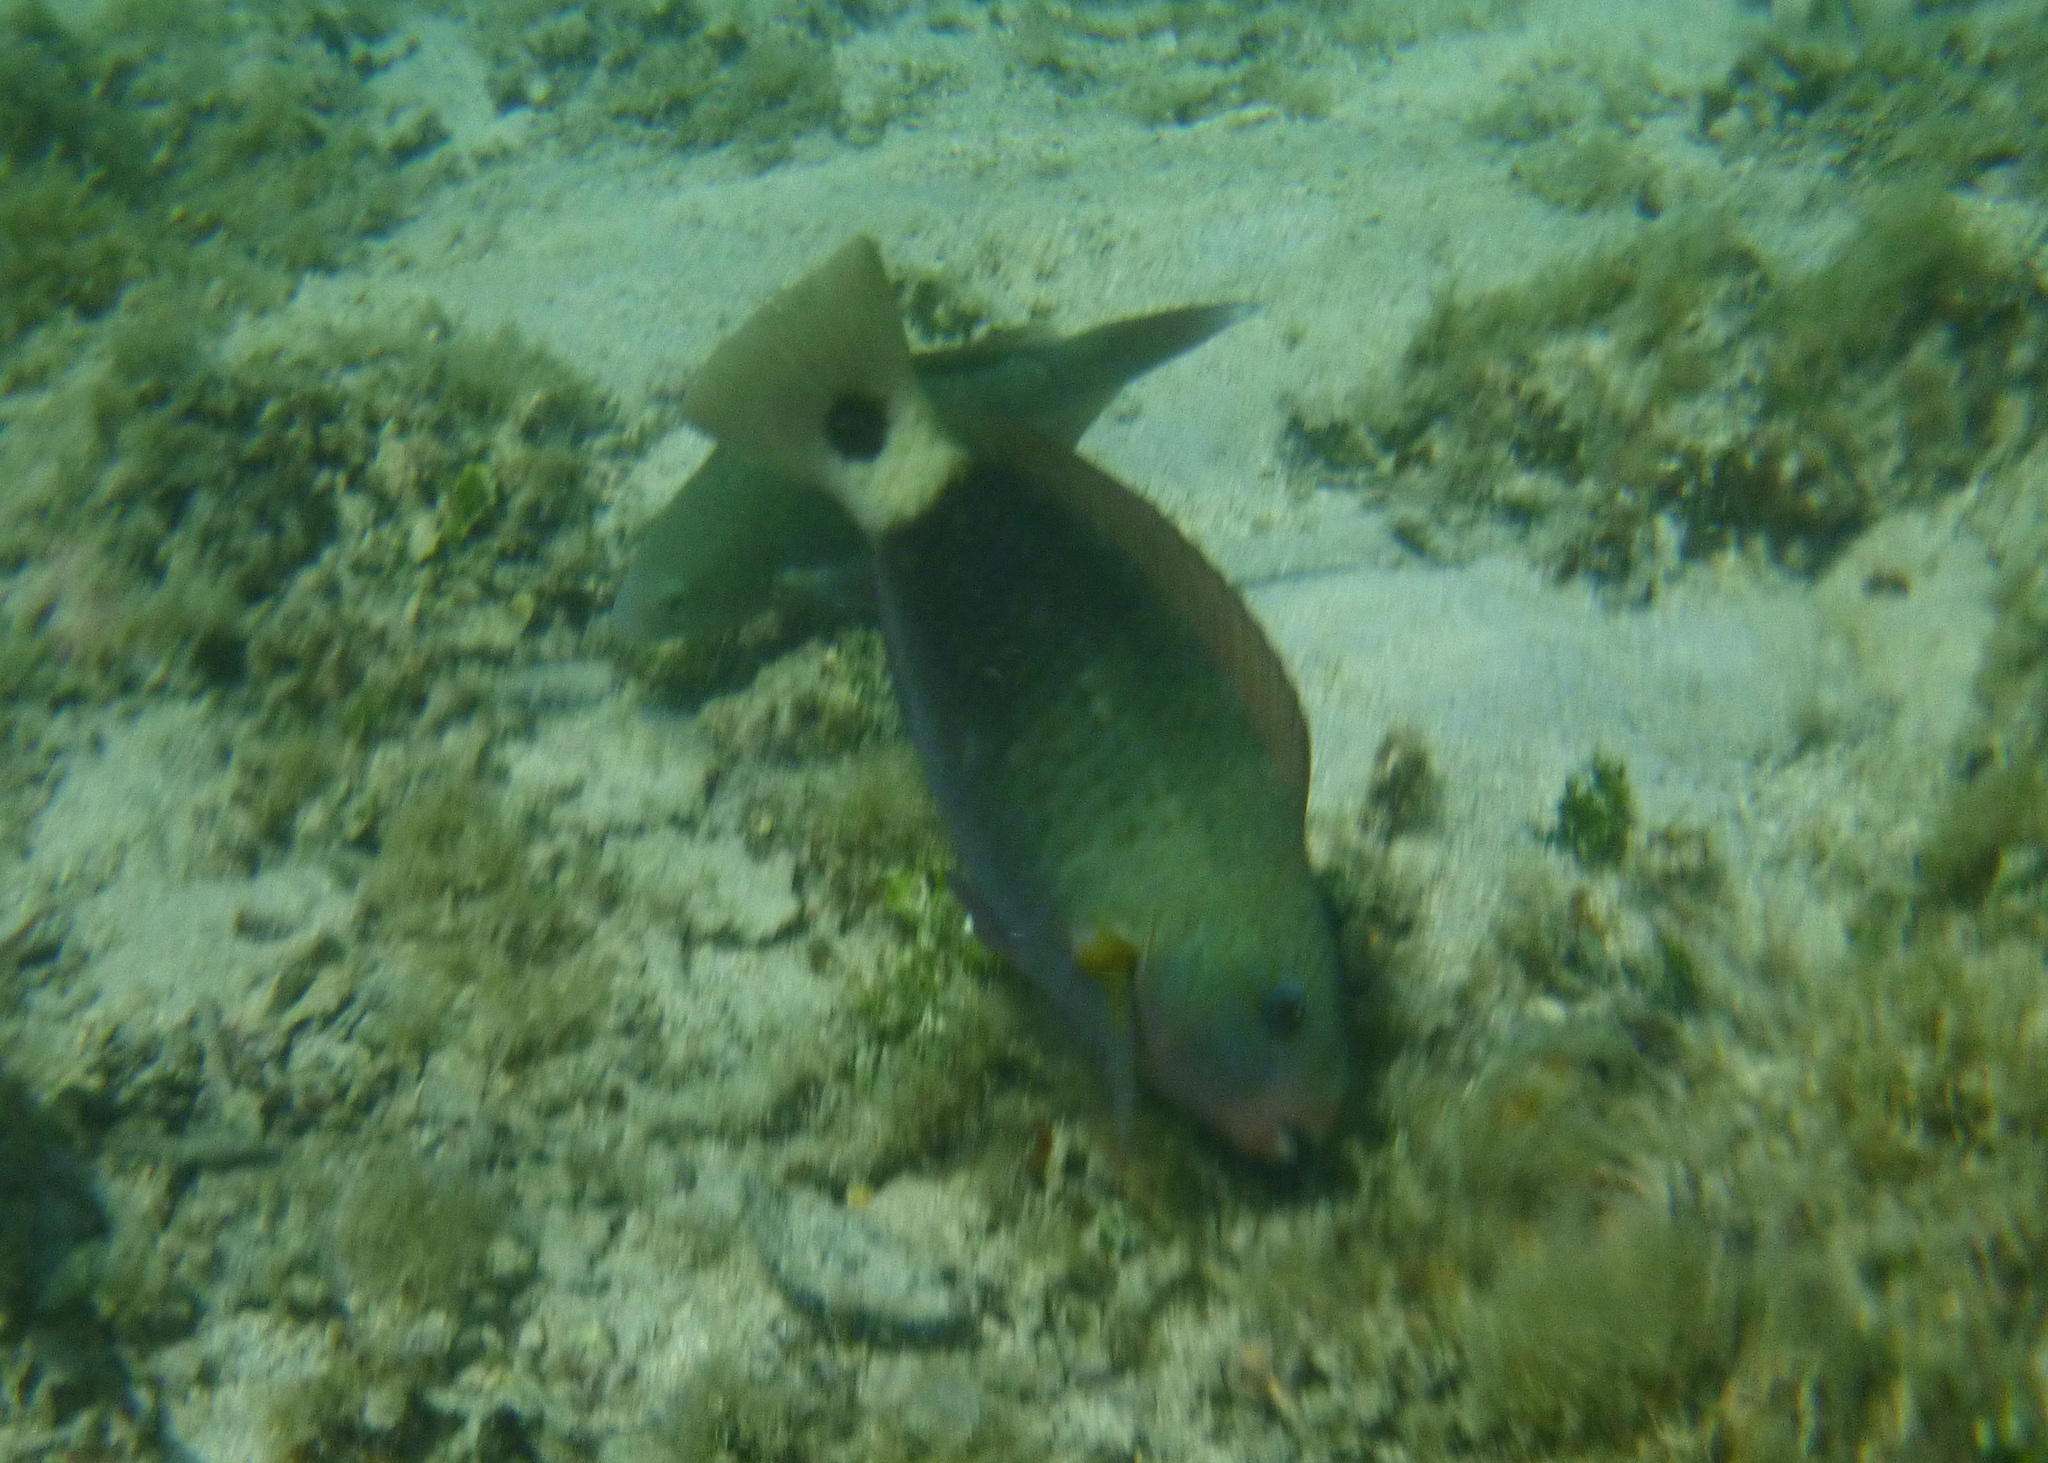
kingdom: Animalia
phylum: Chordata
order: Perciformes
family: Scaridae
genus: Chlorurus
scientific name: Chlorurus spilurus
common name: Bullethead parrotfish
